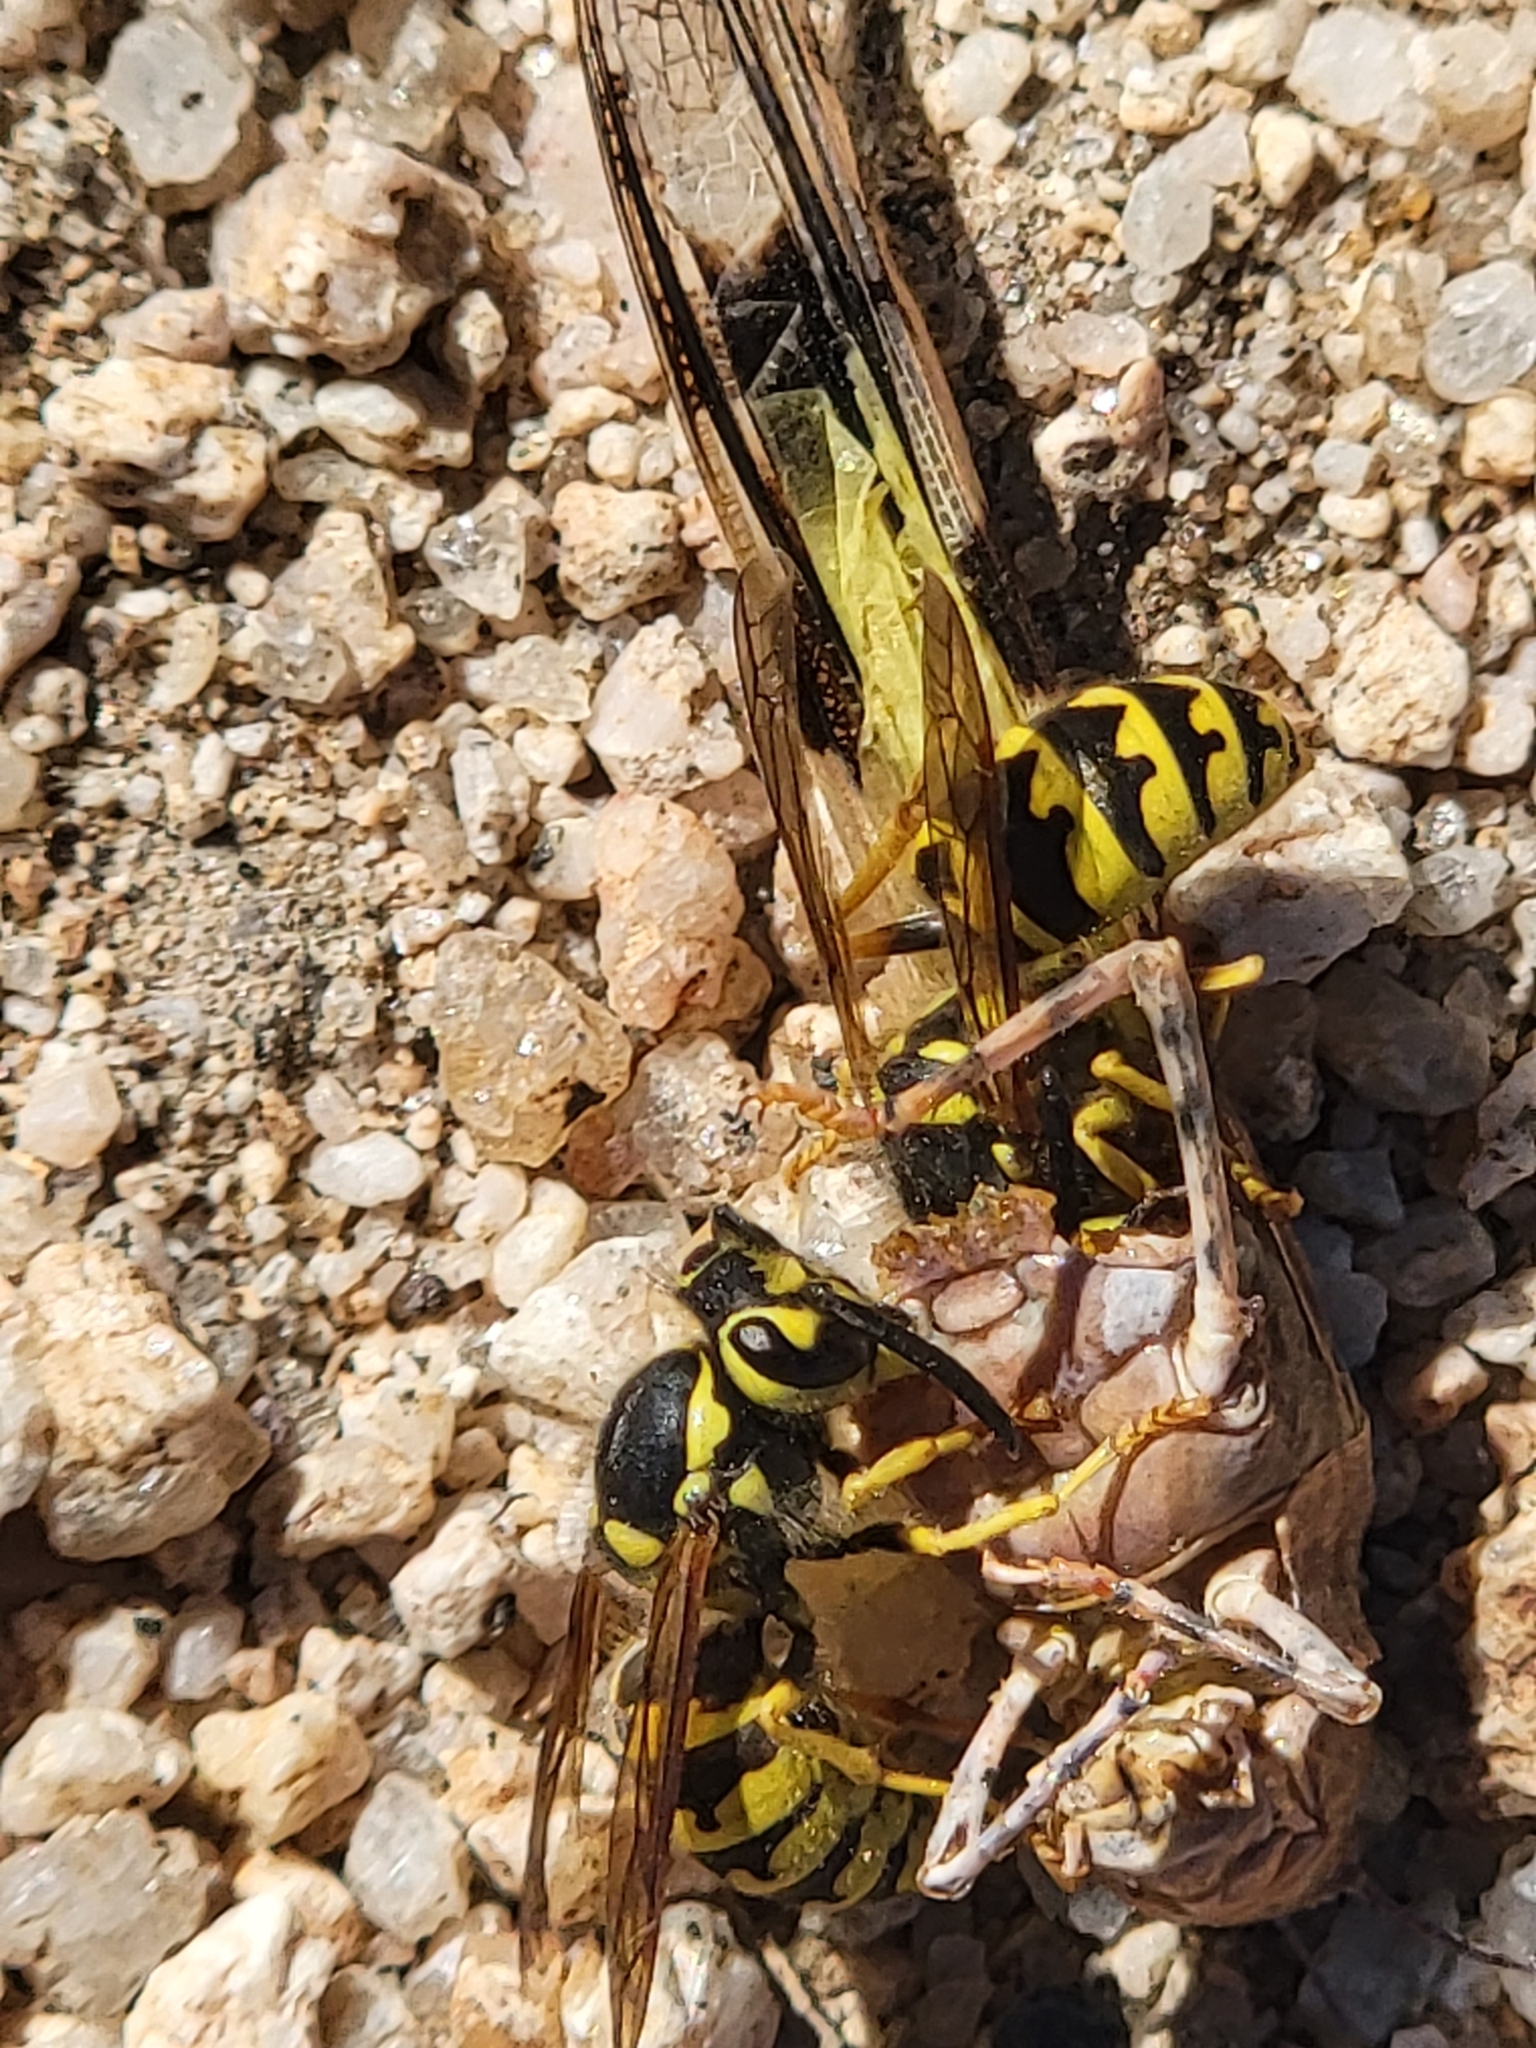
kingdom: Animalia
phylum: Arthropoda
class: Insecta
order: Hymenoptera
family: Vespidae
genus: Vespula
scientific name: Vespula pensylvanica
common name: Western yellowjacket
